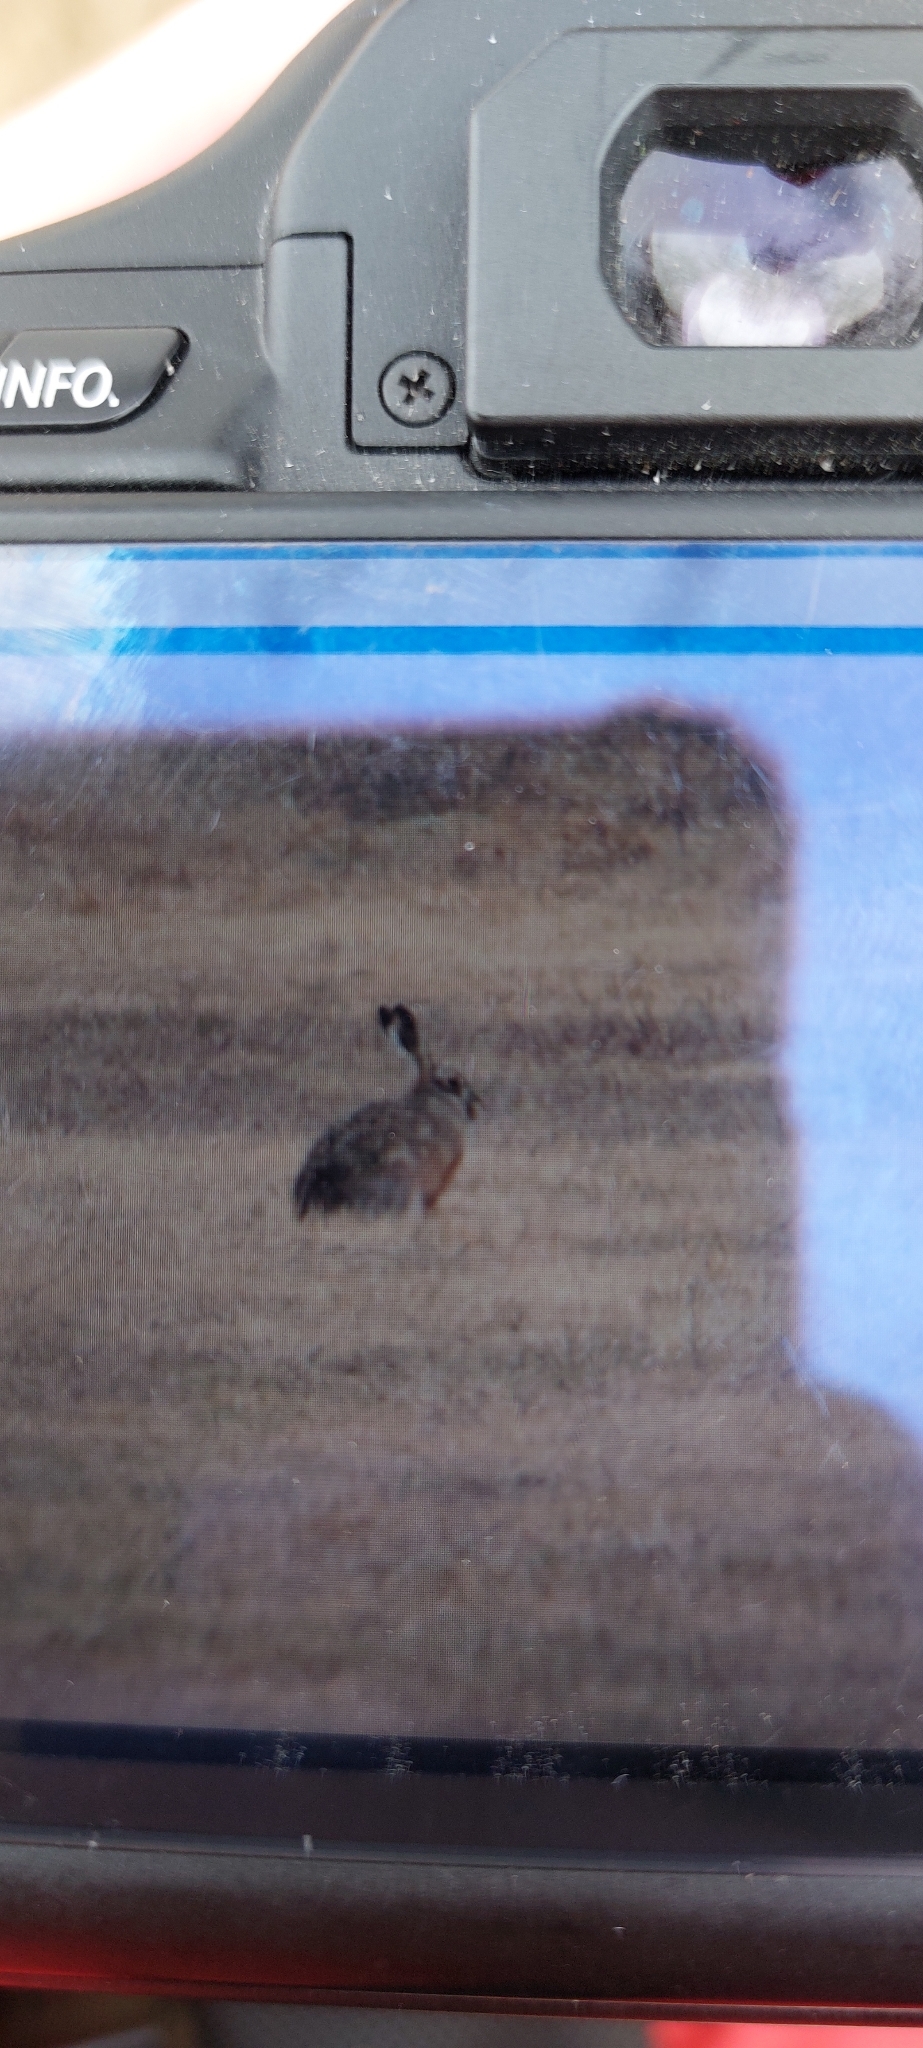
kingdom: Animalia
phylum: Chordata
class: Mammalia
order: Lagomorpha
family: Leporidae
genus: Lepus
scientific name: Lepus europaeus
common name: European hare
